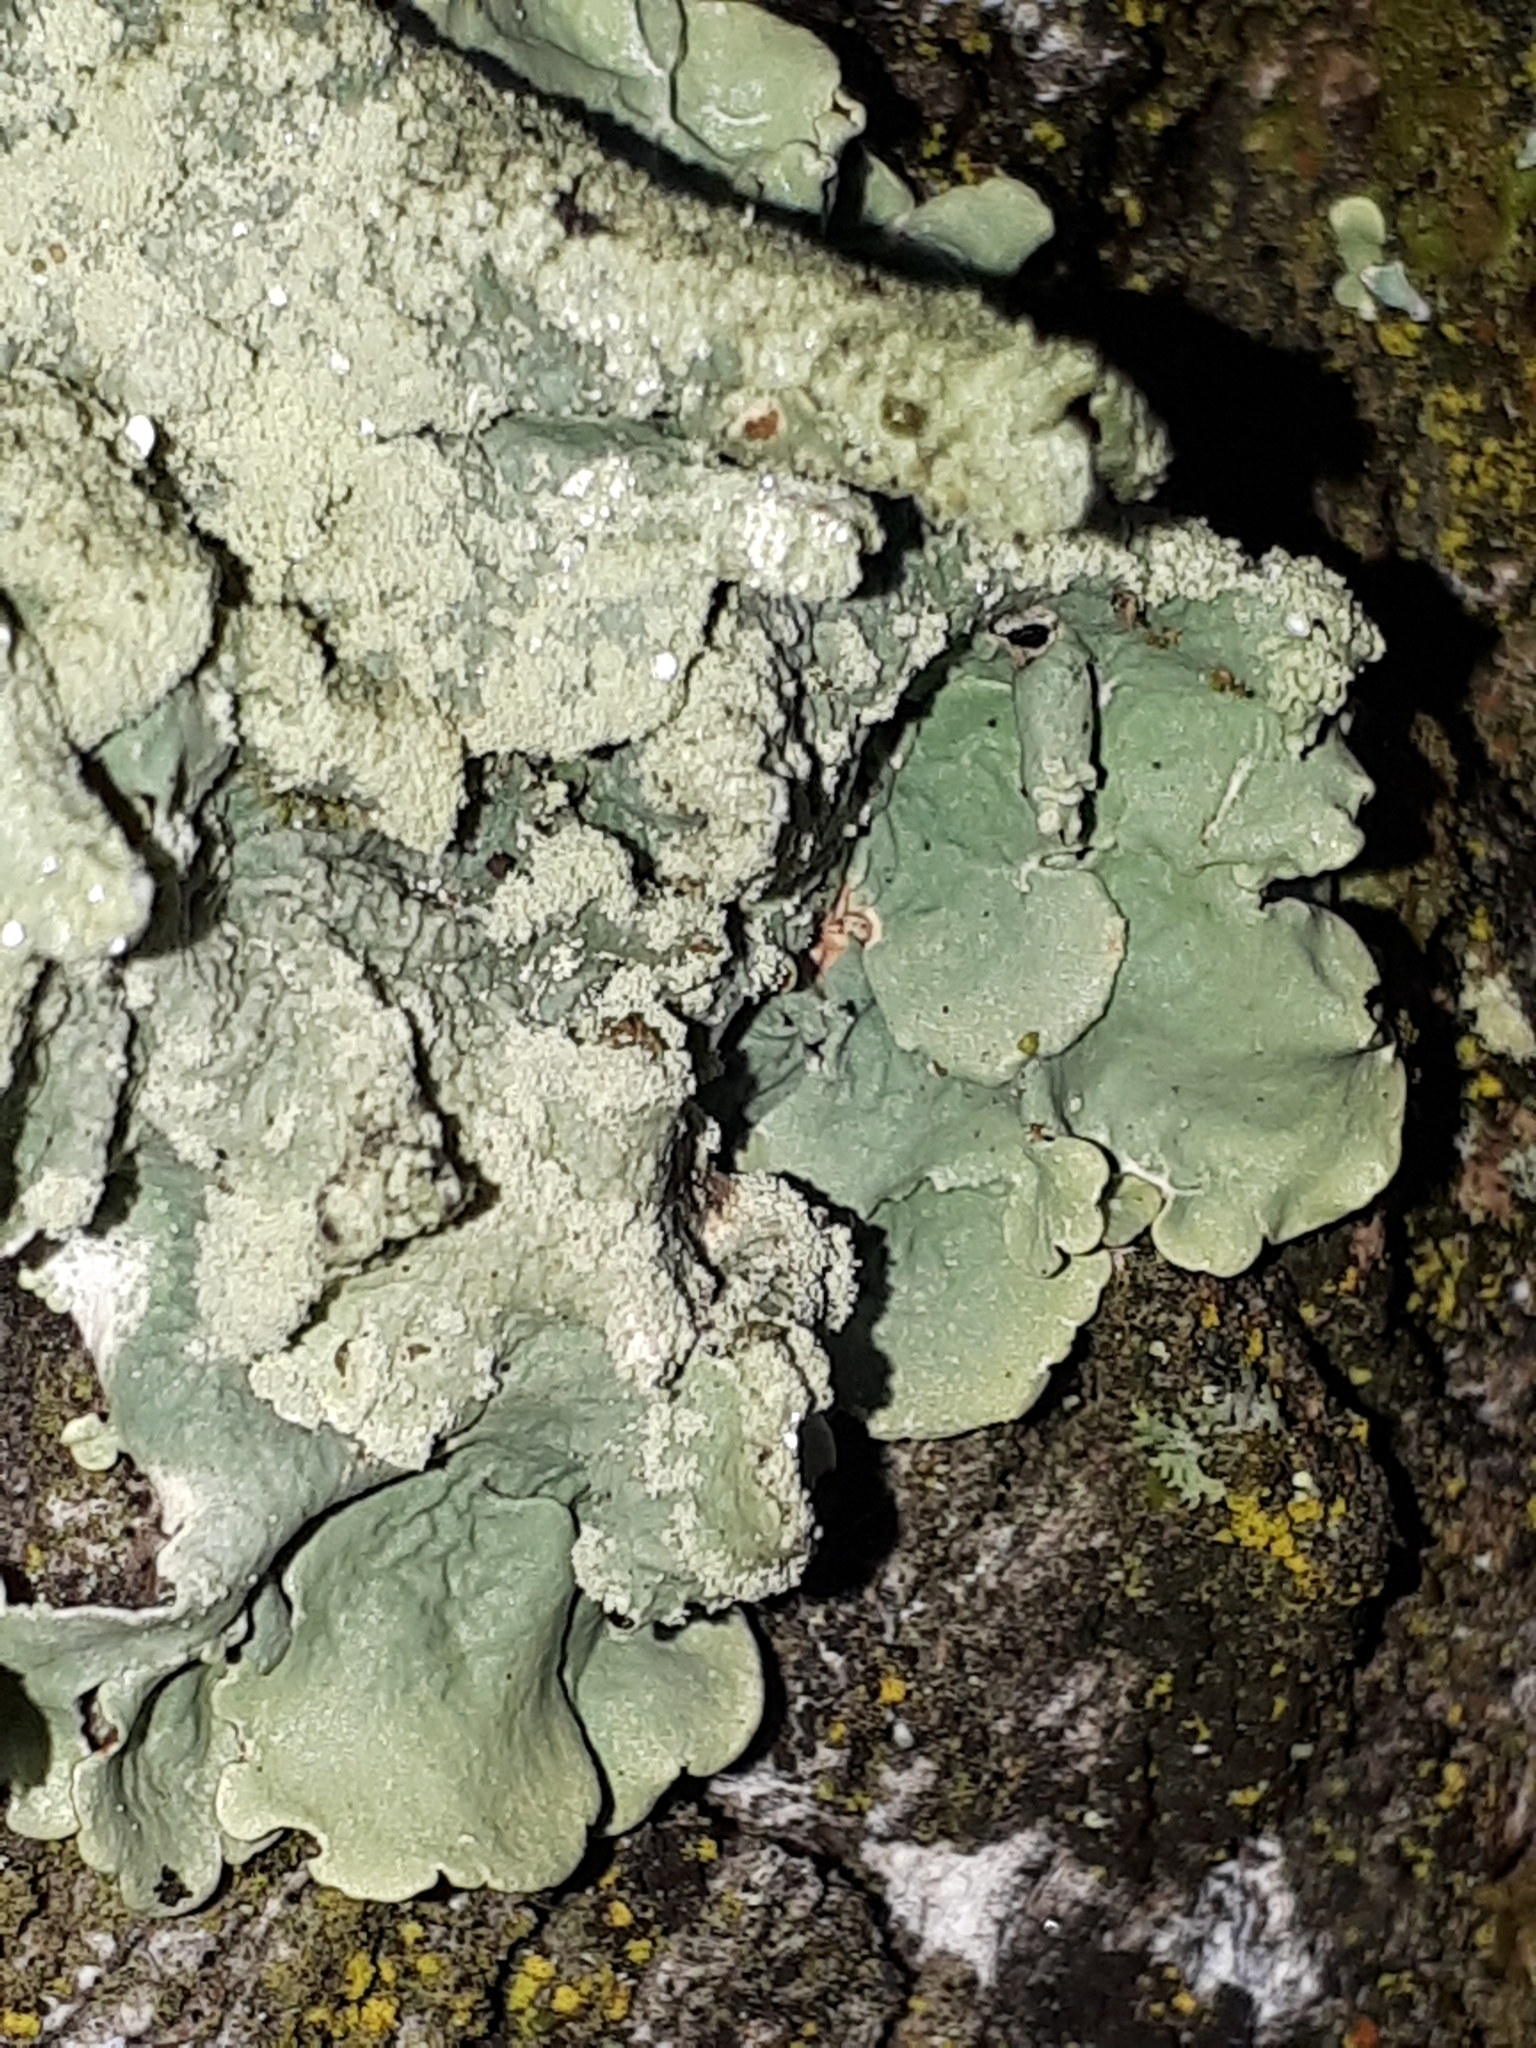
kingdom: Fungi
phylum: Ascomycota
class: Lecanoromycetes
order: Lecanorales
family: Parmeliaceae
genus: Flavoparmelia
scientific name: Flavoparmelia caperata
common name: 40-mile per hour lichen
